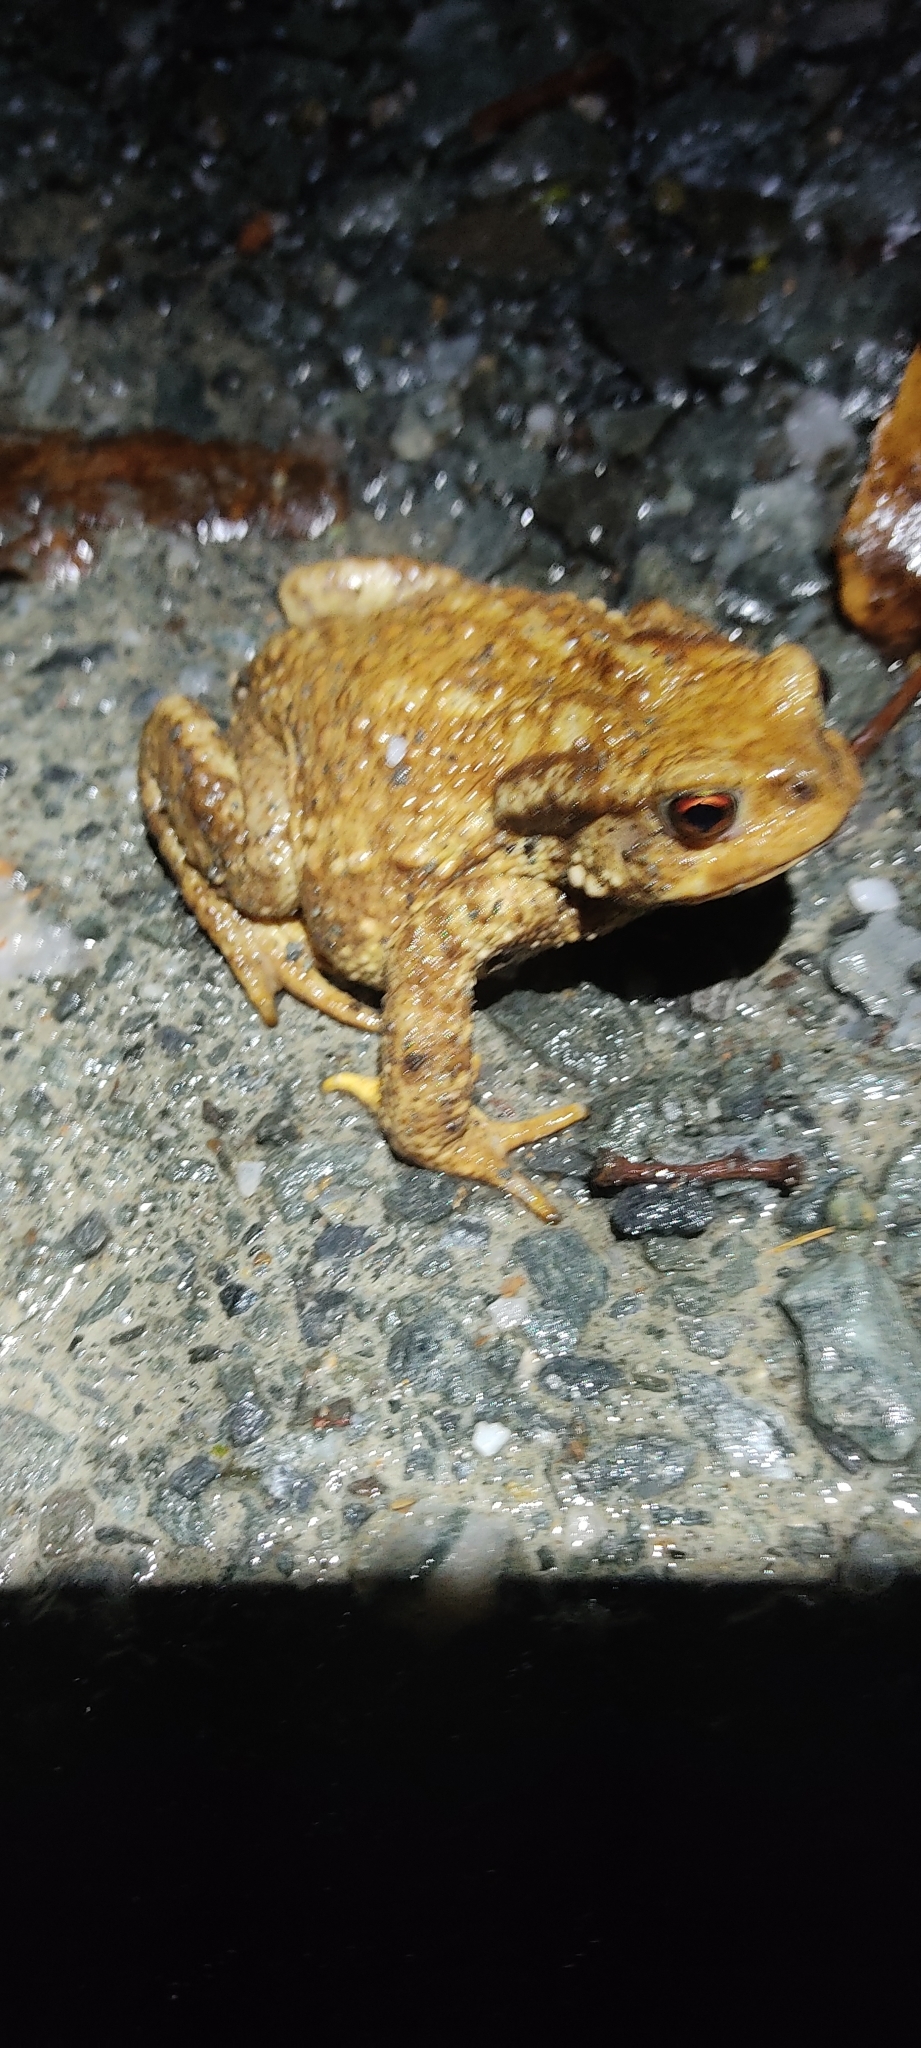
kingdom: Animalia
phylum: Chordata
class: Amphibia
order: Anura
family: Bufonidae
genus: Bufo
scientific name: Bufo spinosus
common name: Western common toad
